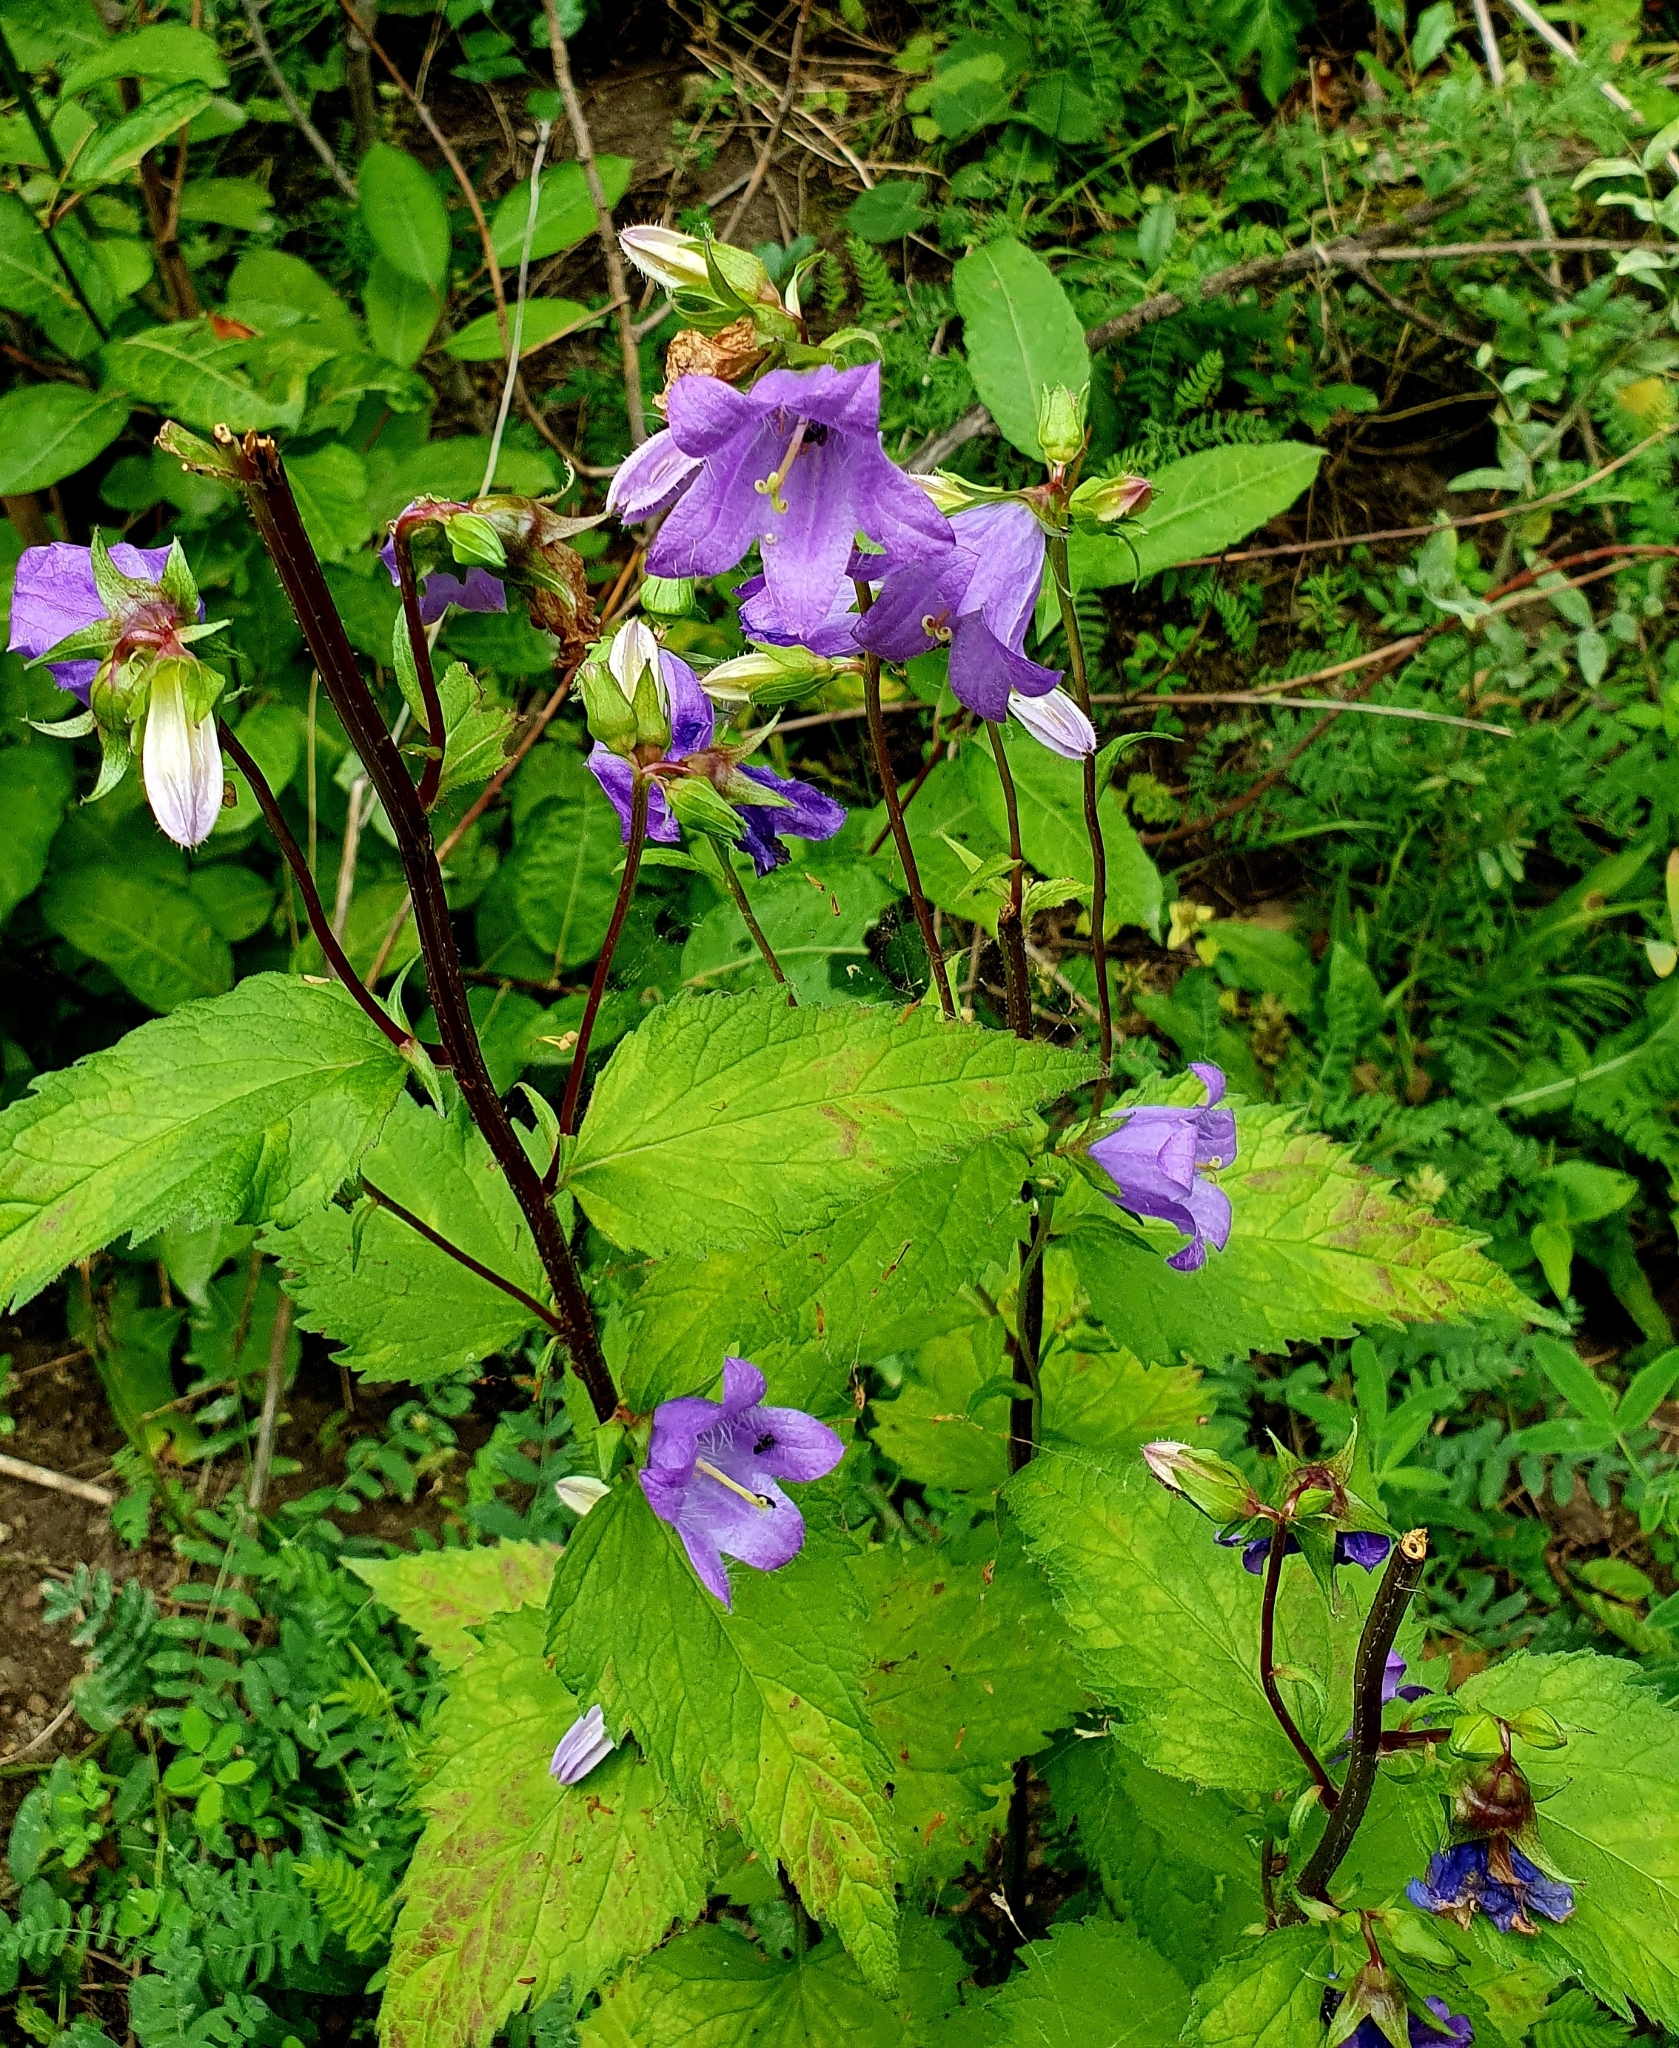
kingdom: Plantae
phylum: Tracheophyta
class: Magnoliopsida
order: Asterales
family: Campanulaceae
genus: Campanula
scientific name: Campanula trachelium
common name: Nettle-leaved bellflower
